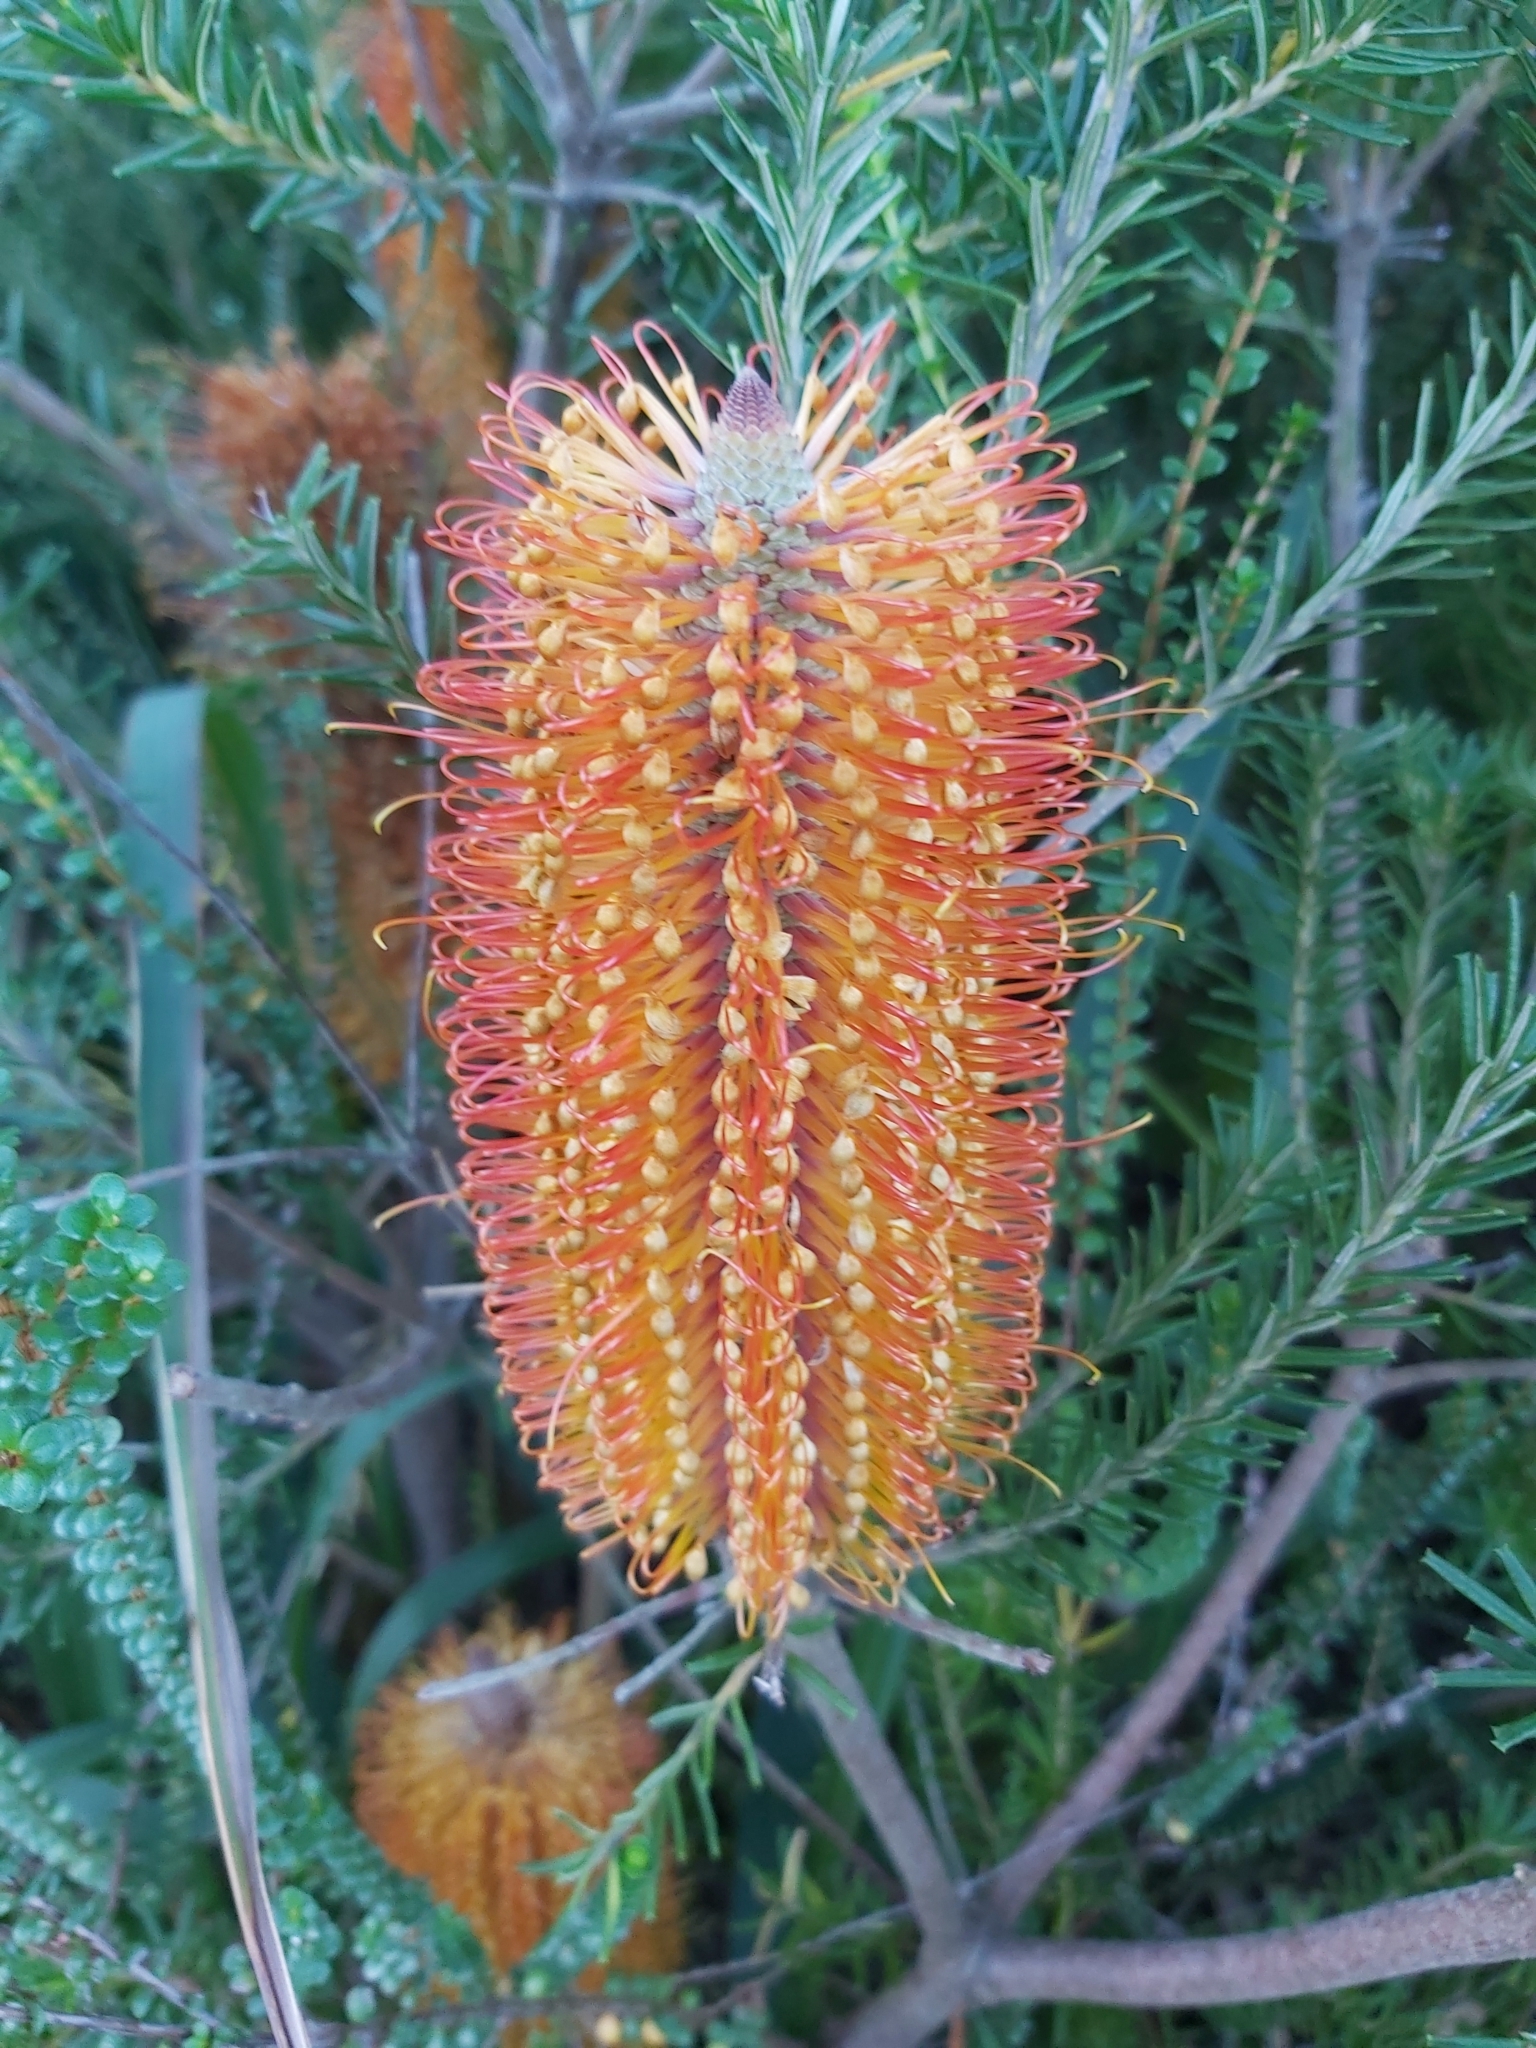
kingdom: Plantae
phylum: Tracheophyta
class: Magnoliopsida
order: Proteales
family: Proteaceae
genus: Banksia
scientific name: Banksia ericifolia
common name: Heath-leaf banksia
